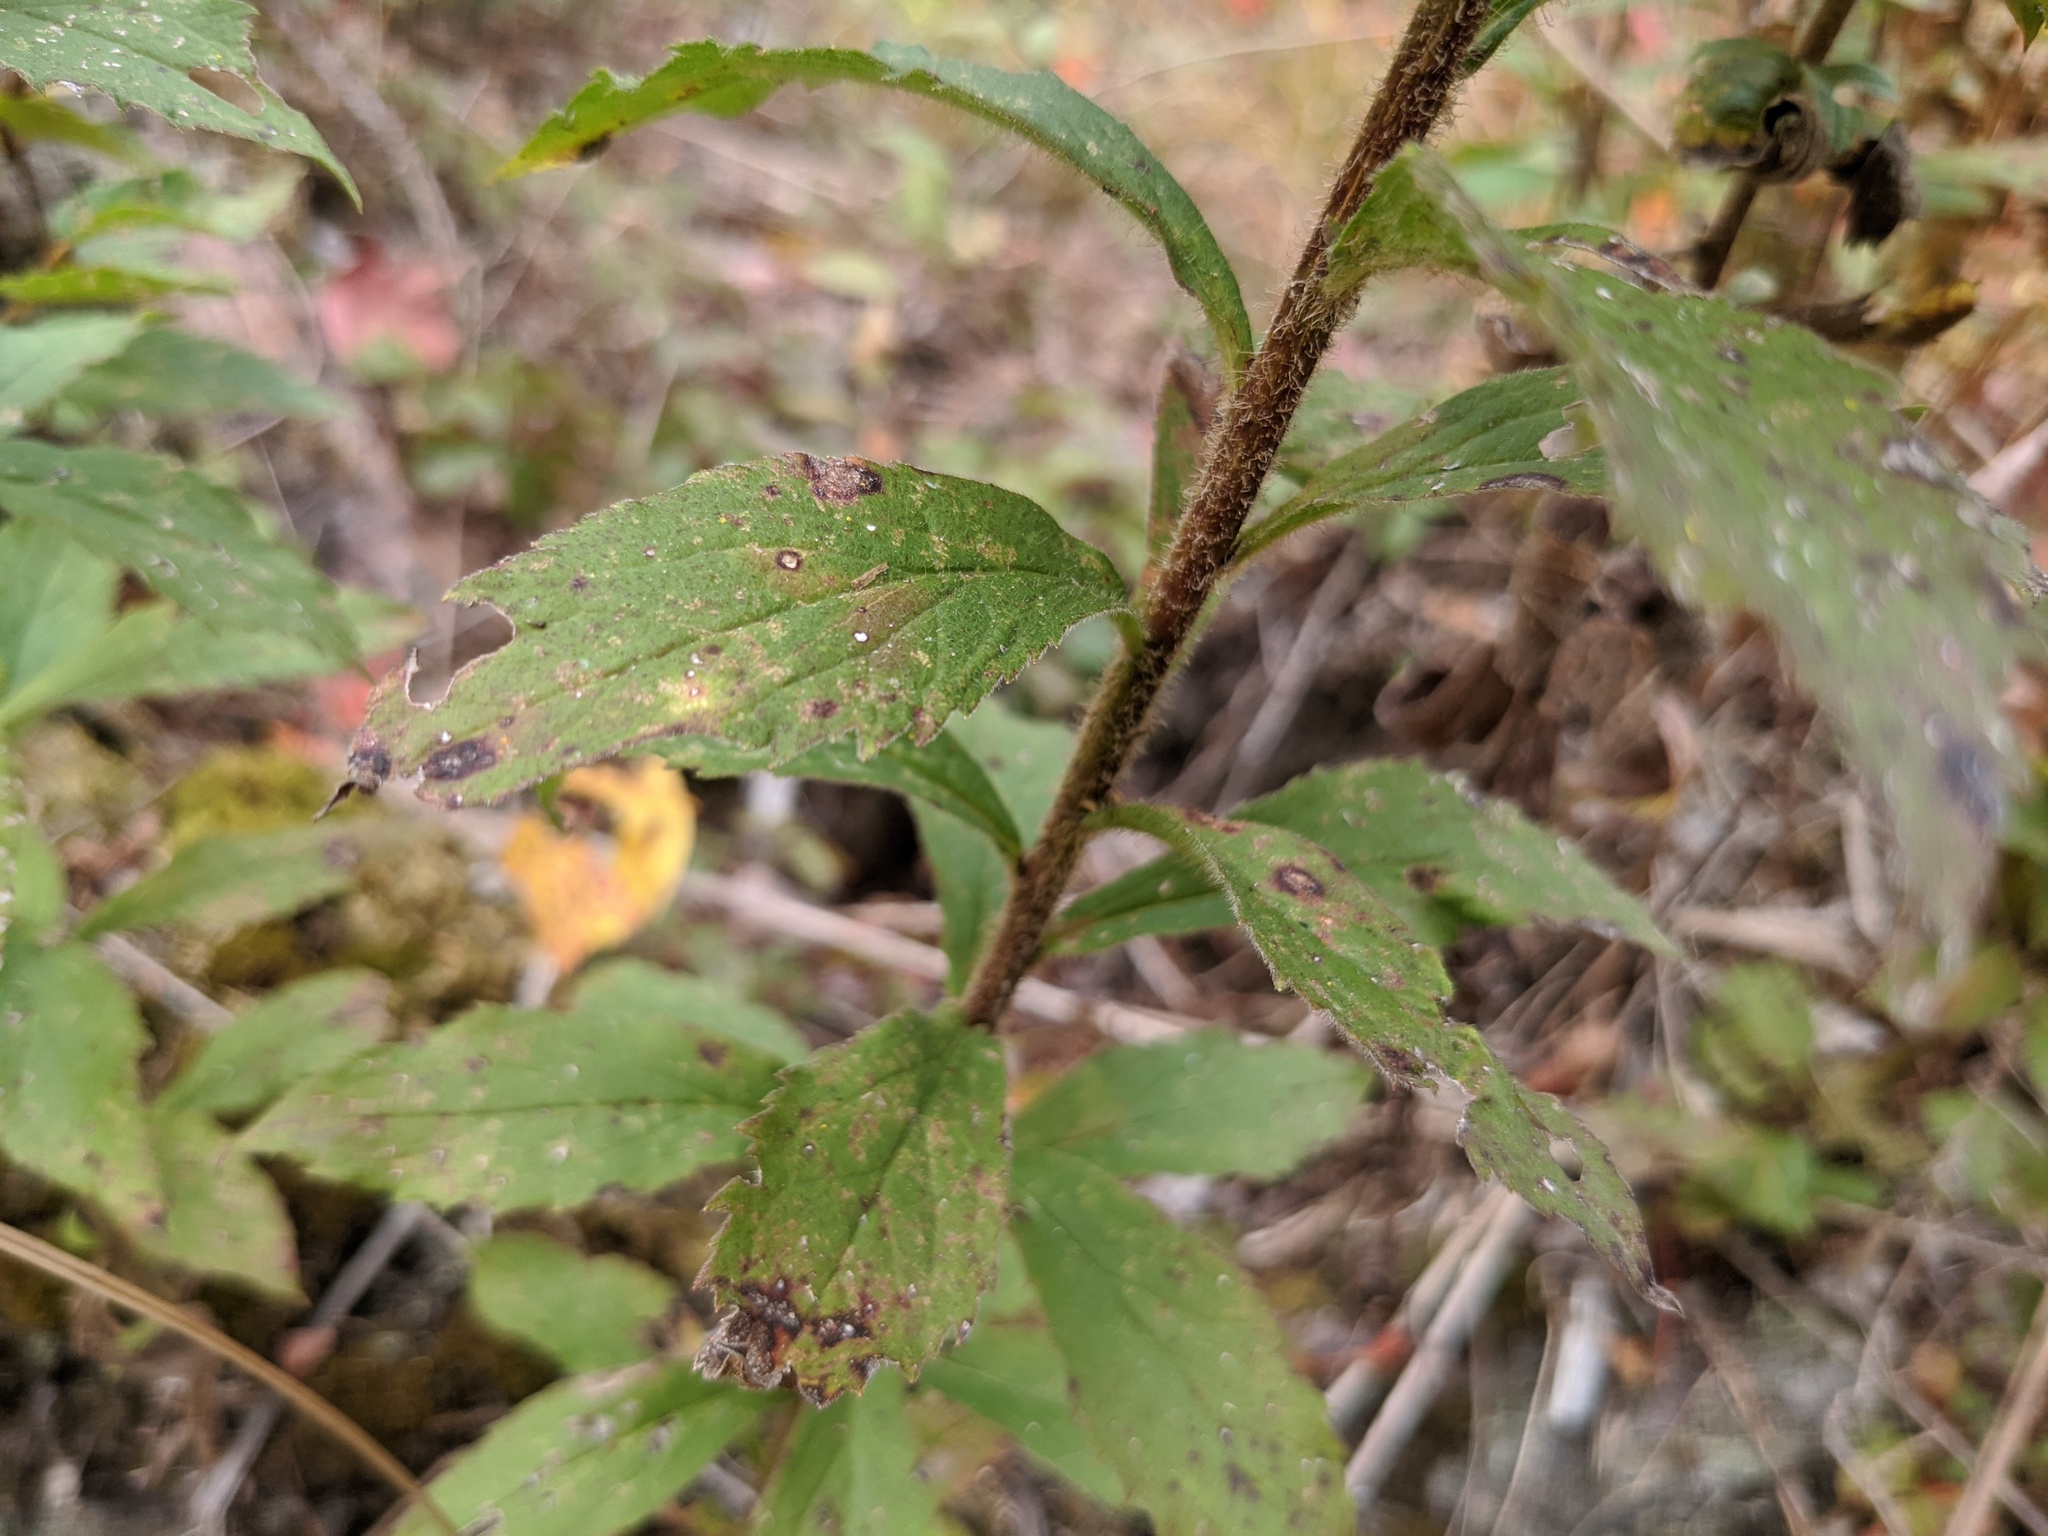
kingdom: Plantae
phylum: Tracheophyta
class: Magnoliopsida
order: Asterales
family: Asteraceae
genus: Solidago
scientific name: Solidago rugosa
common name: Rough-stemmed goldenrod
